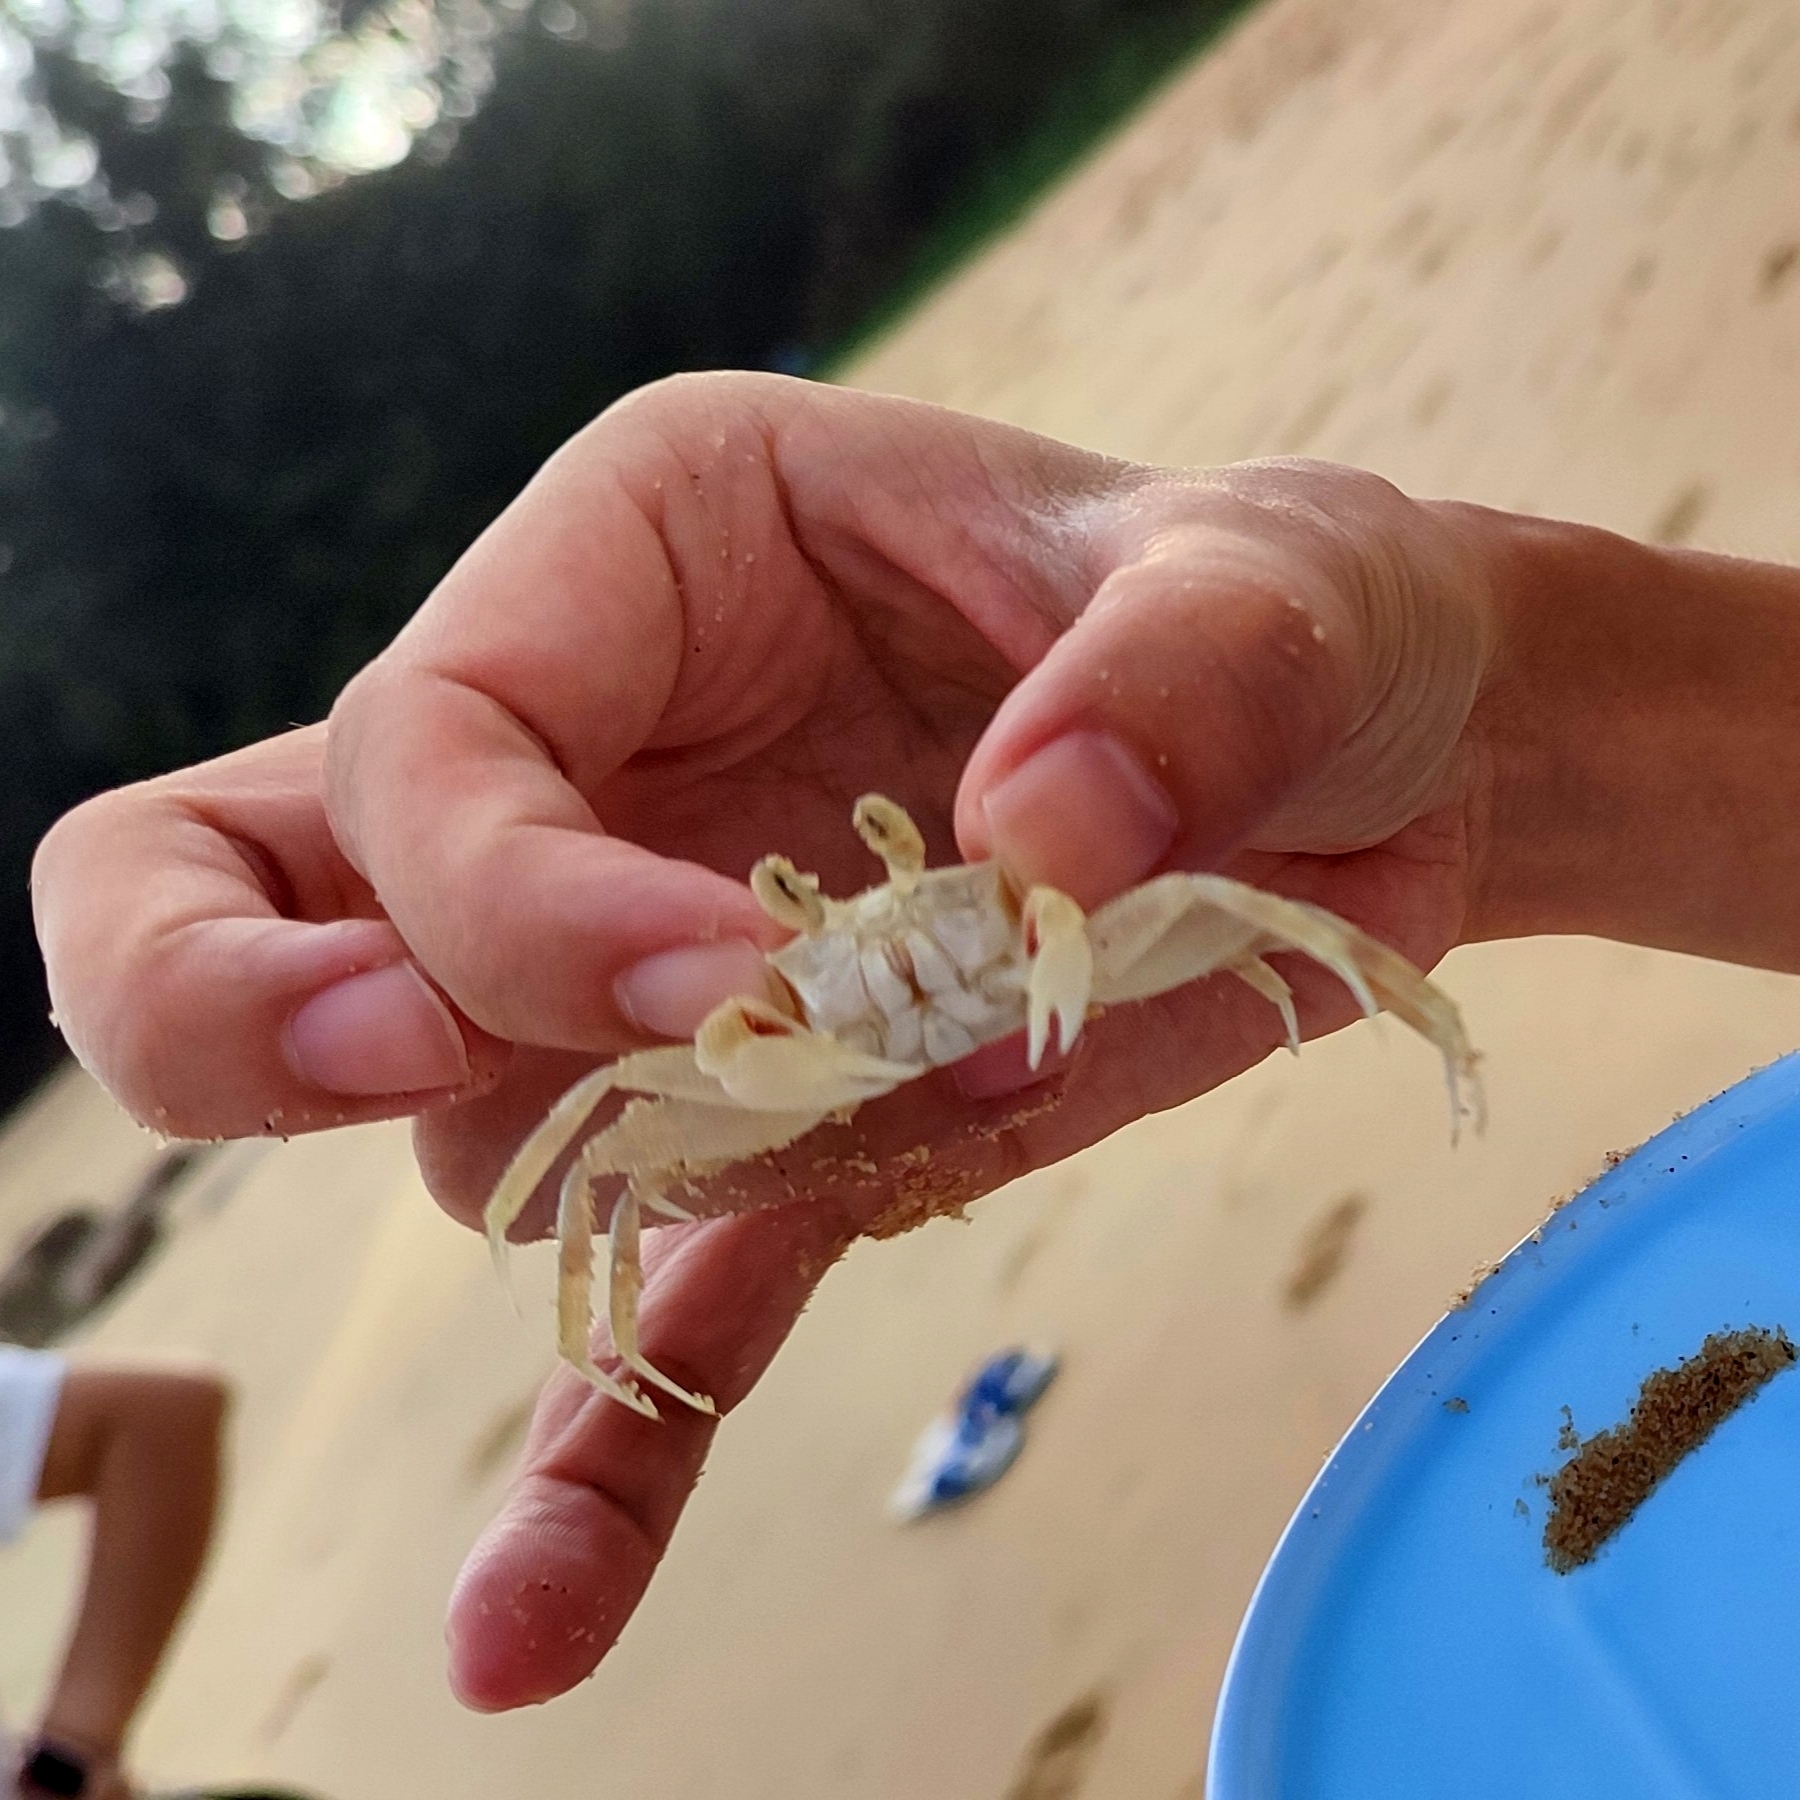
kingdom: Animalia
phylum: Arthropoda
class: Malacostraca
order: Decapoda
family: Ocypodidae
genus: Ocypode
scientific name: Ocypode ceratophthalmus
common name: Indo-pacific ghost crab
